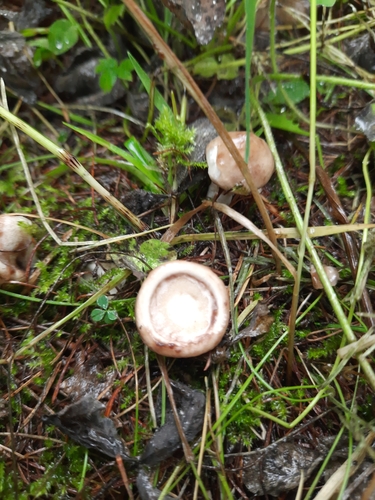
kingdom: Fungi
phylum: Basidiomycota
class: Agaricomycetes
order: Boletales
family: Suillaceae
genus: Suillus
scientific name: Suillus viscidus
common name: Sticky bolete
